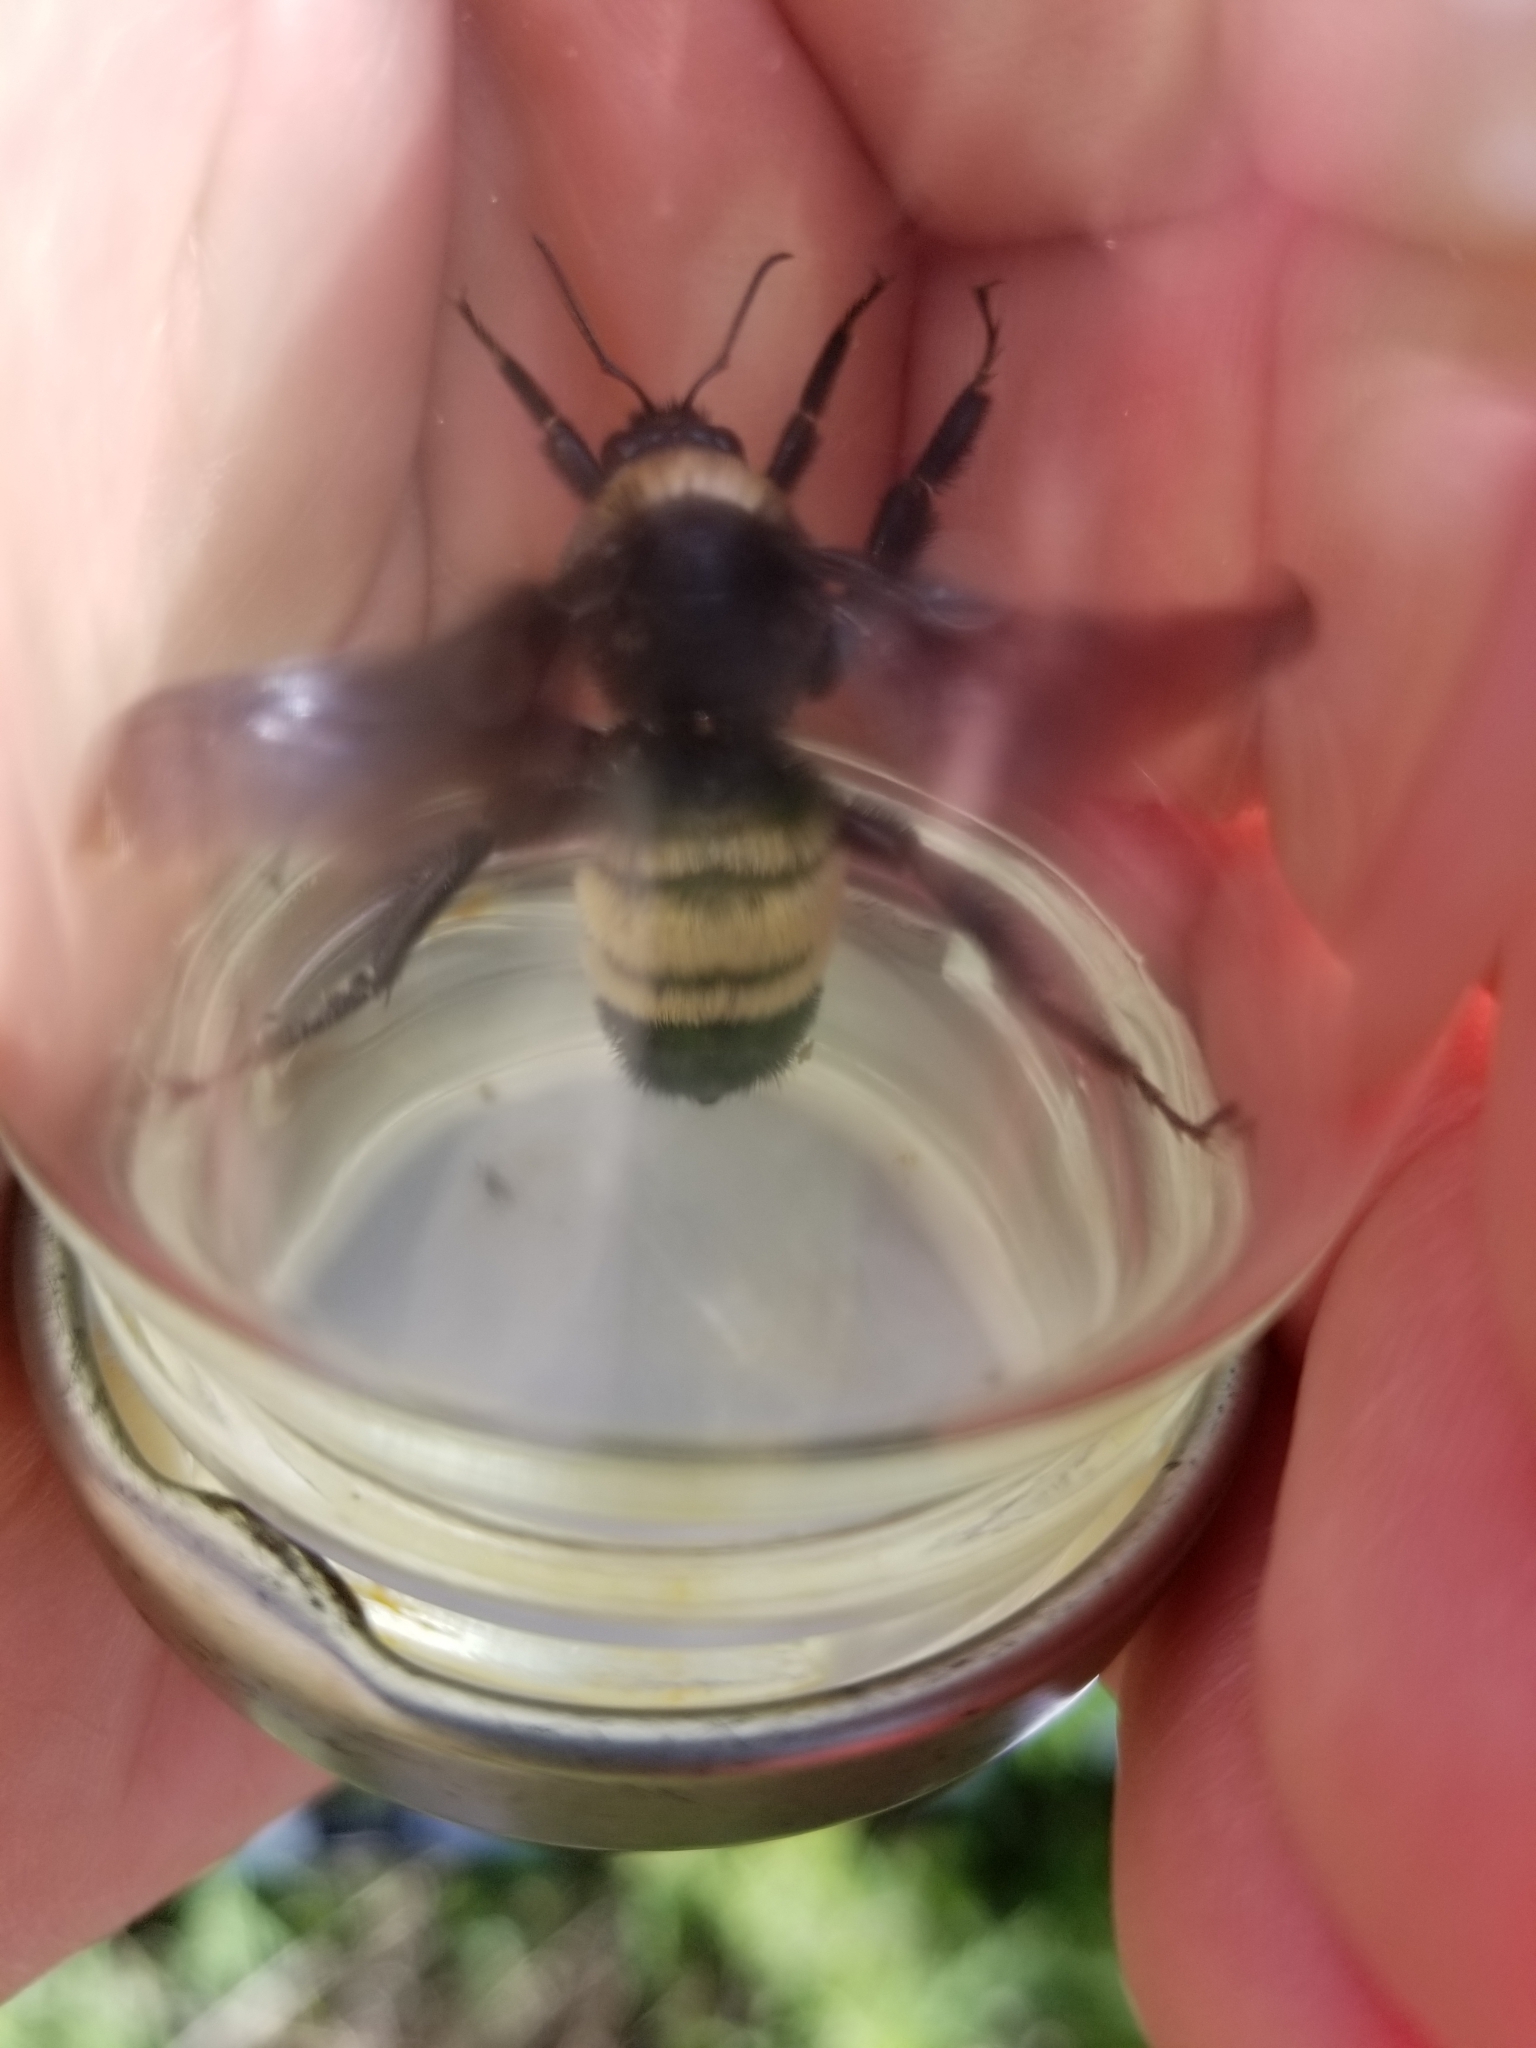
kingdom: Animalia
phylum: Arthropoda
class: Insecta
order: Hymenoptera
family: Apidae
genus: Bombus
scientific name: Bombus pensylvanicus
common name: Bumble bee
